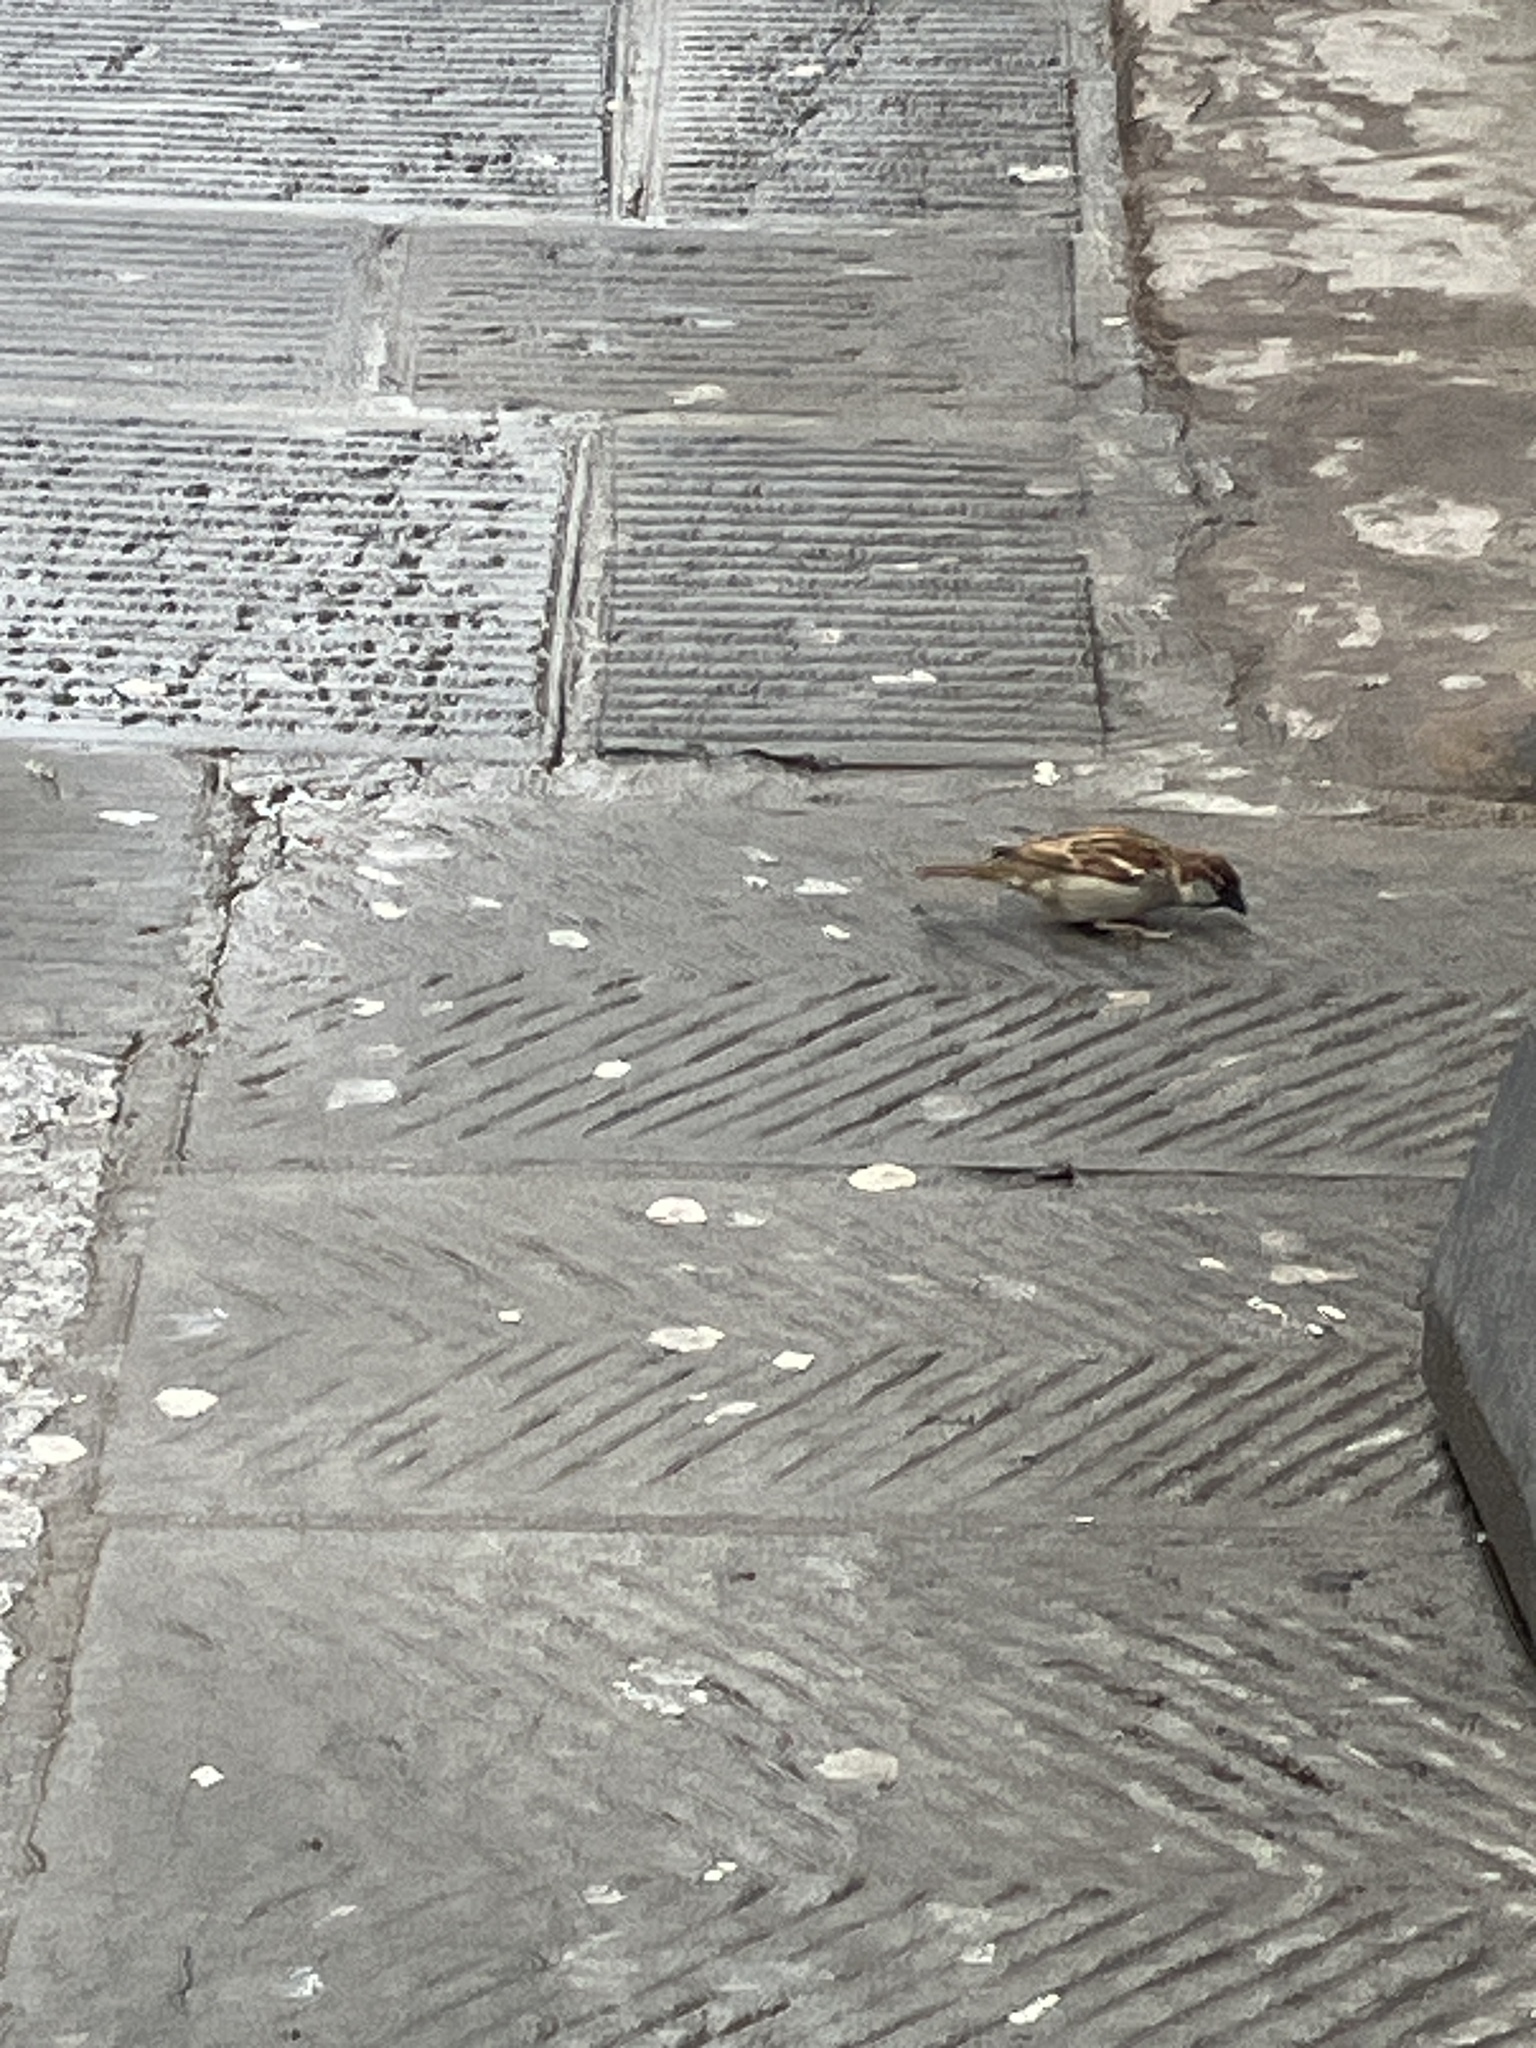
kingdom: Animalia
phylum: Chordata
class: Aves
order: Passeriformes
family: Passeridae
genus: Passer
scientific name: Passer italiae
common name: Italian sparrow
